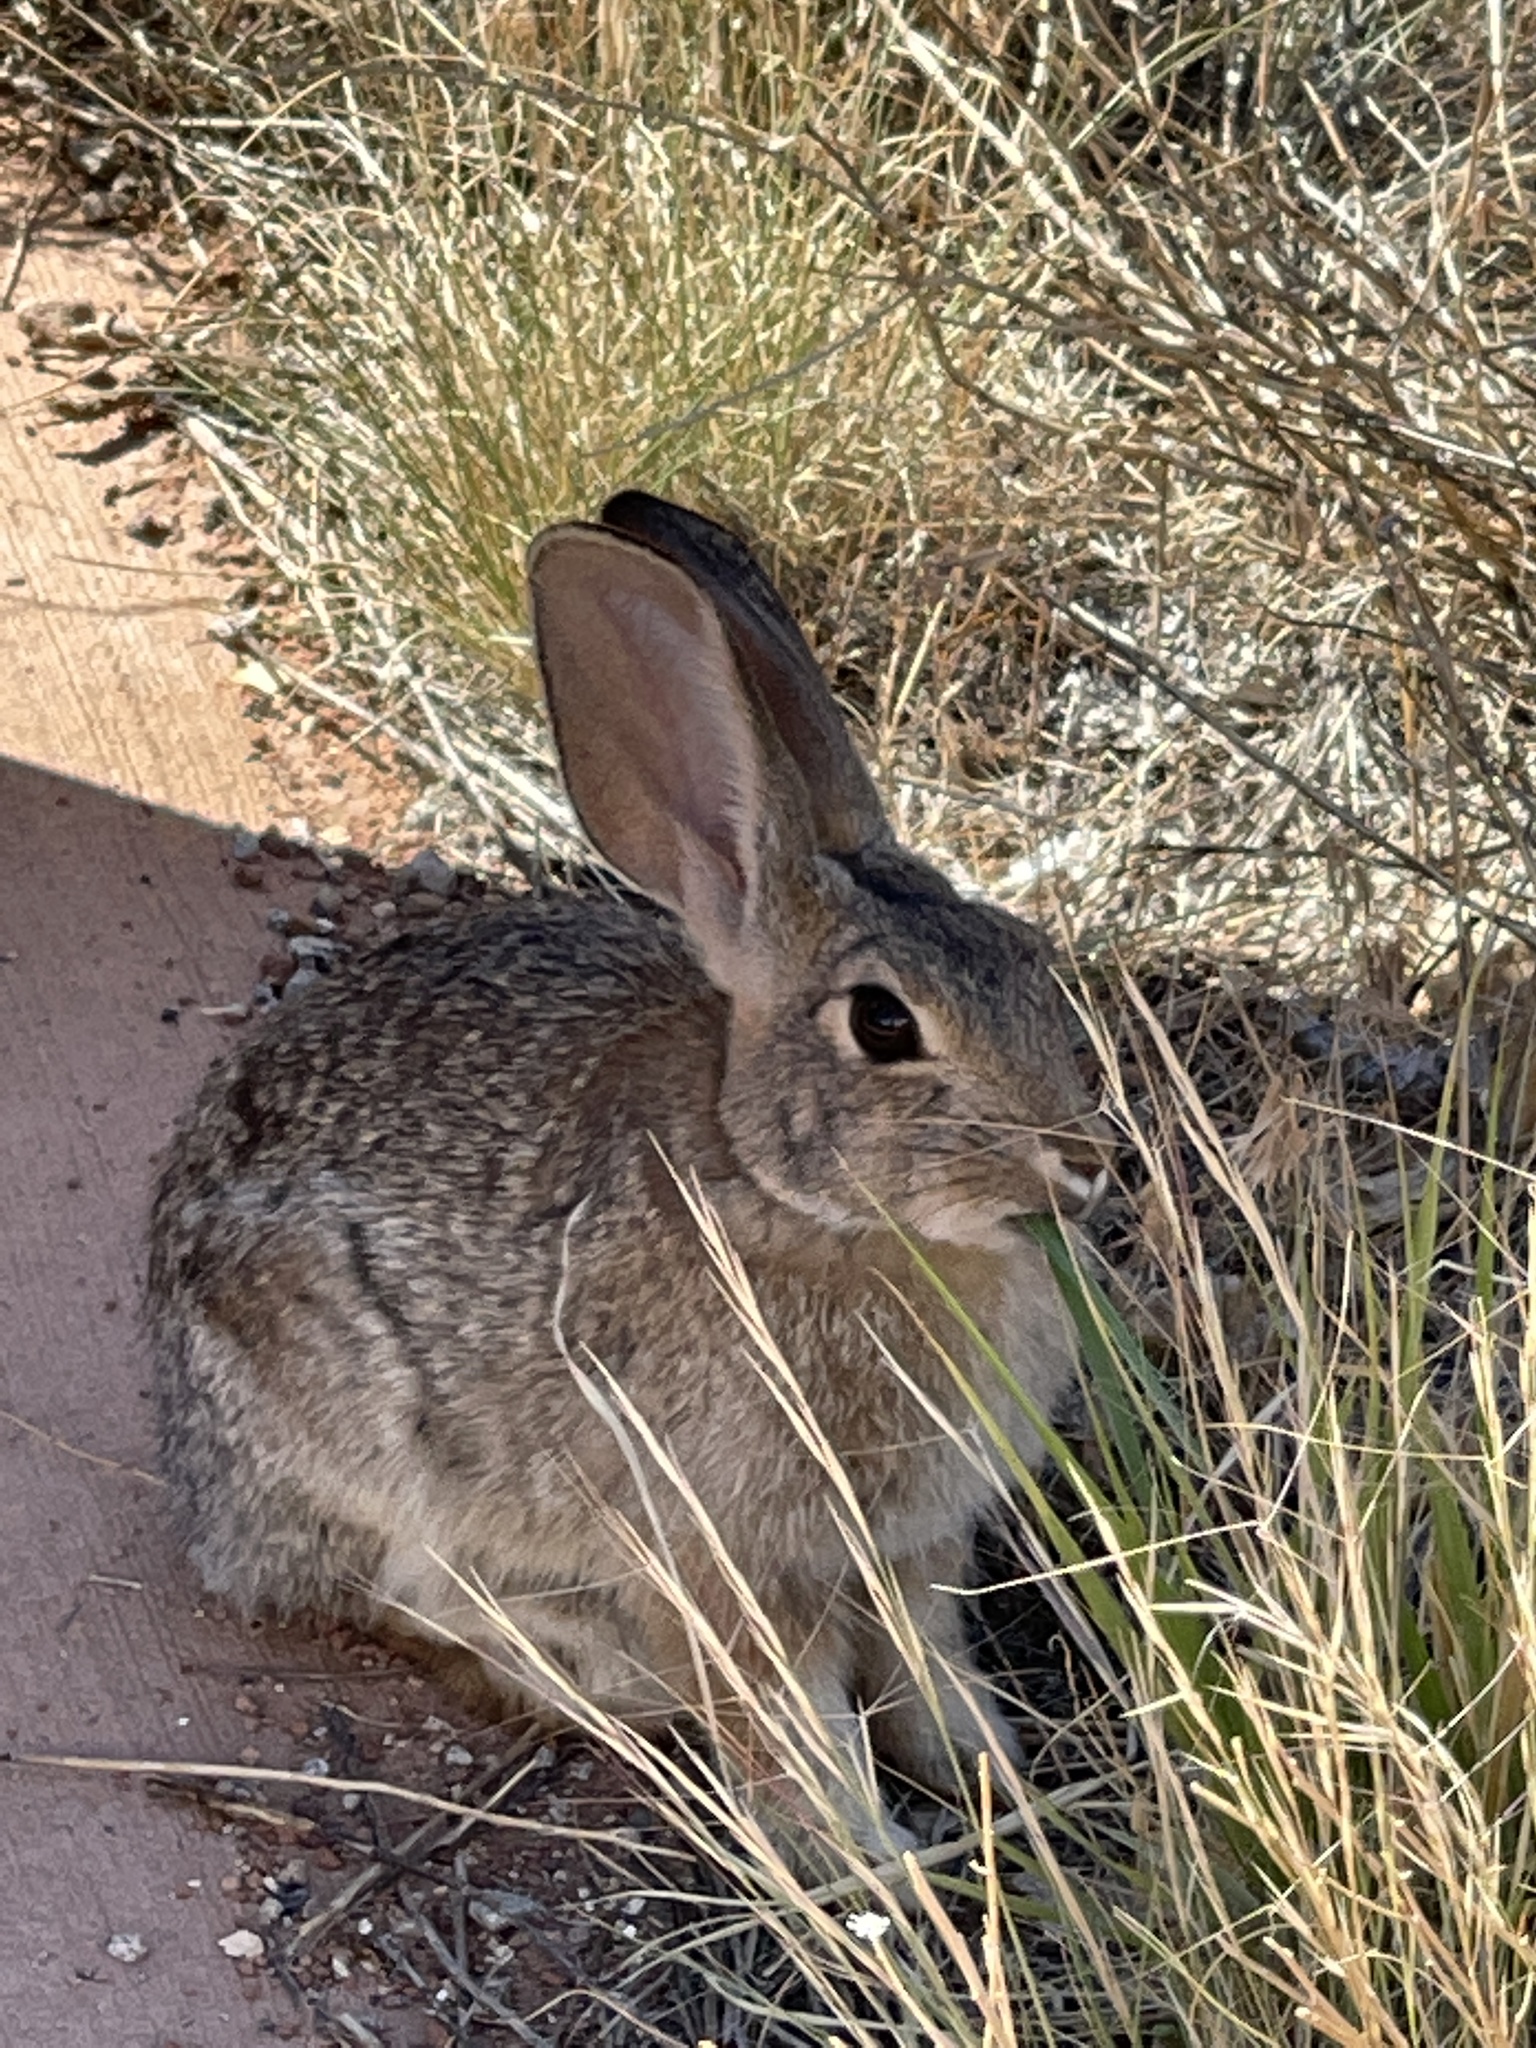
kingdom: Animalia
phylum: Chordata
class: Mammalia
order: Lagomorpha
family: Leporidae
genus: Sylvilagus
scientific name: Sylvilagus audubonii
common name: Desert cottontail
